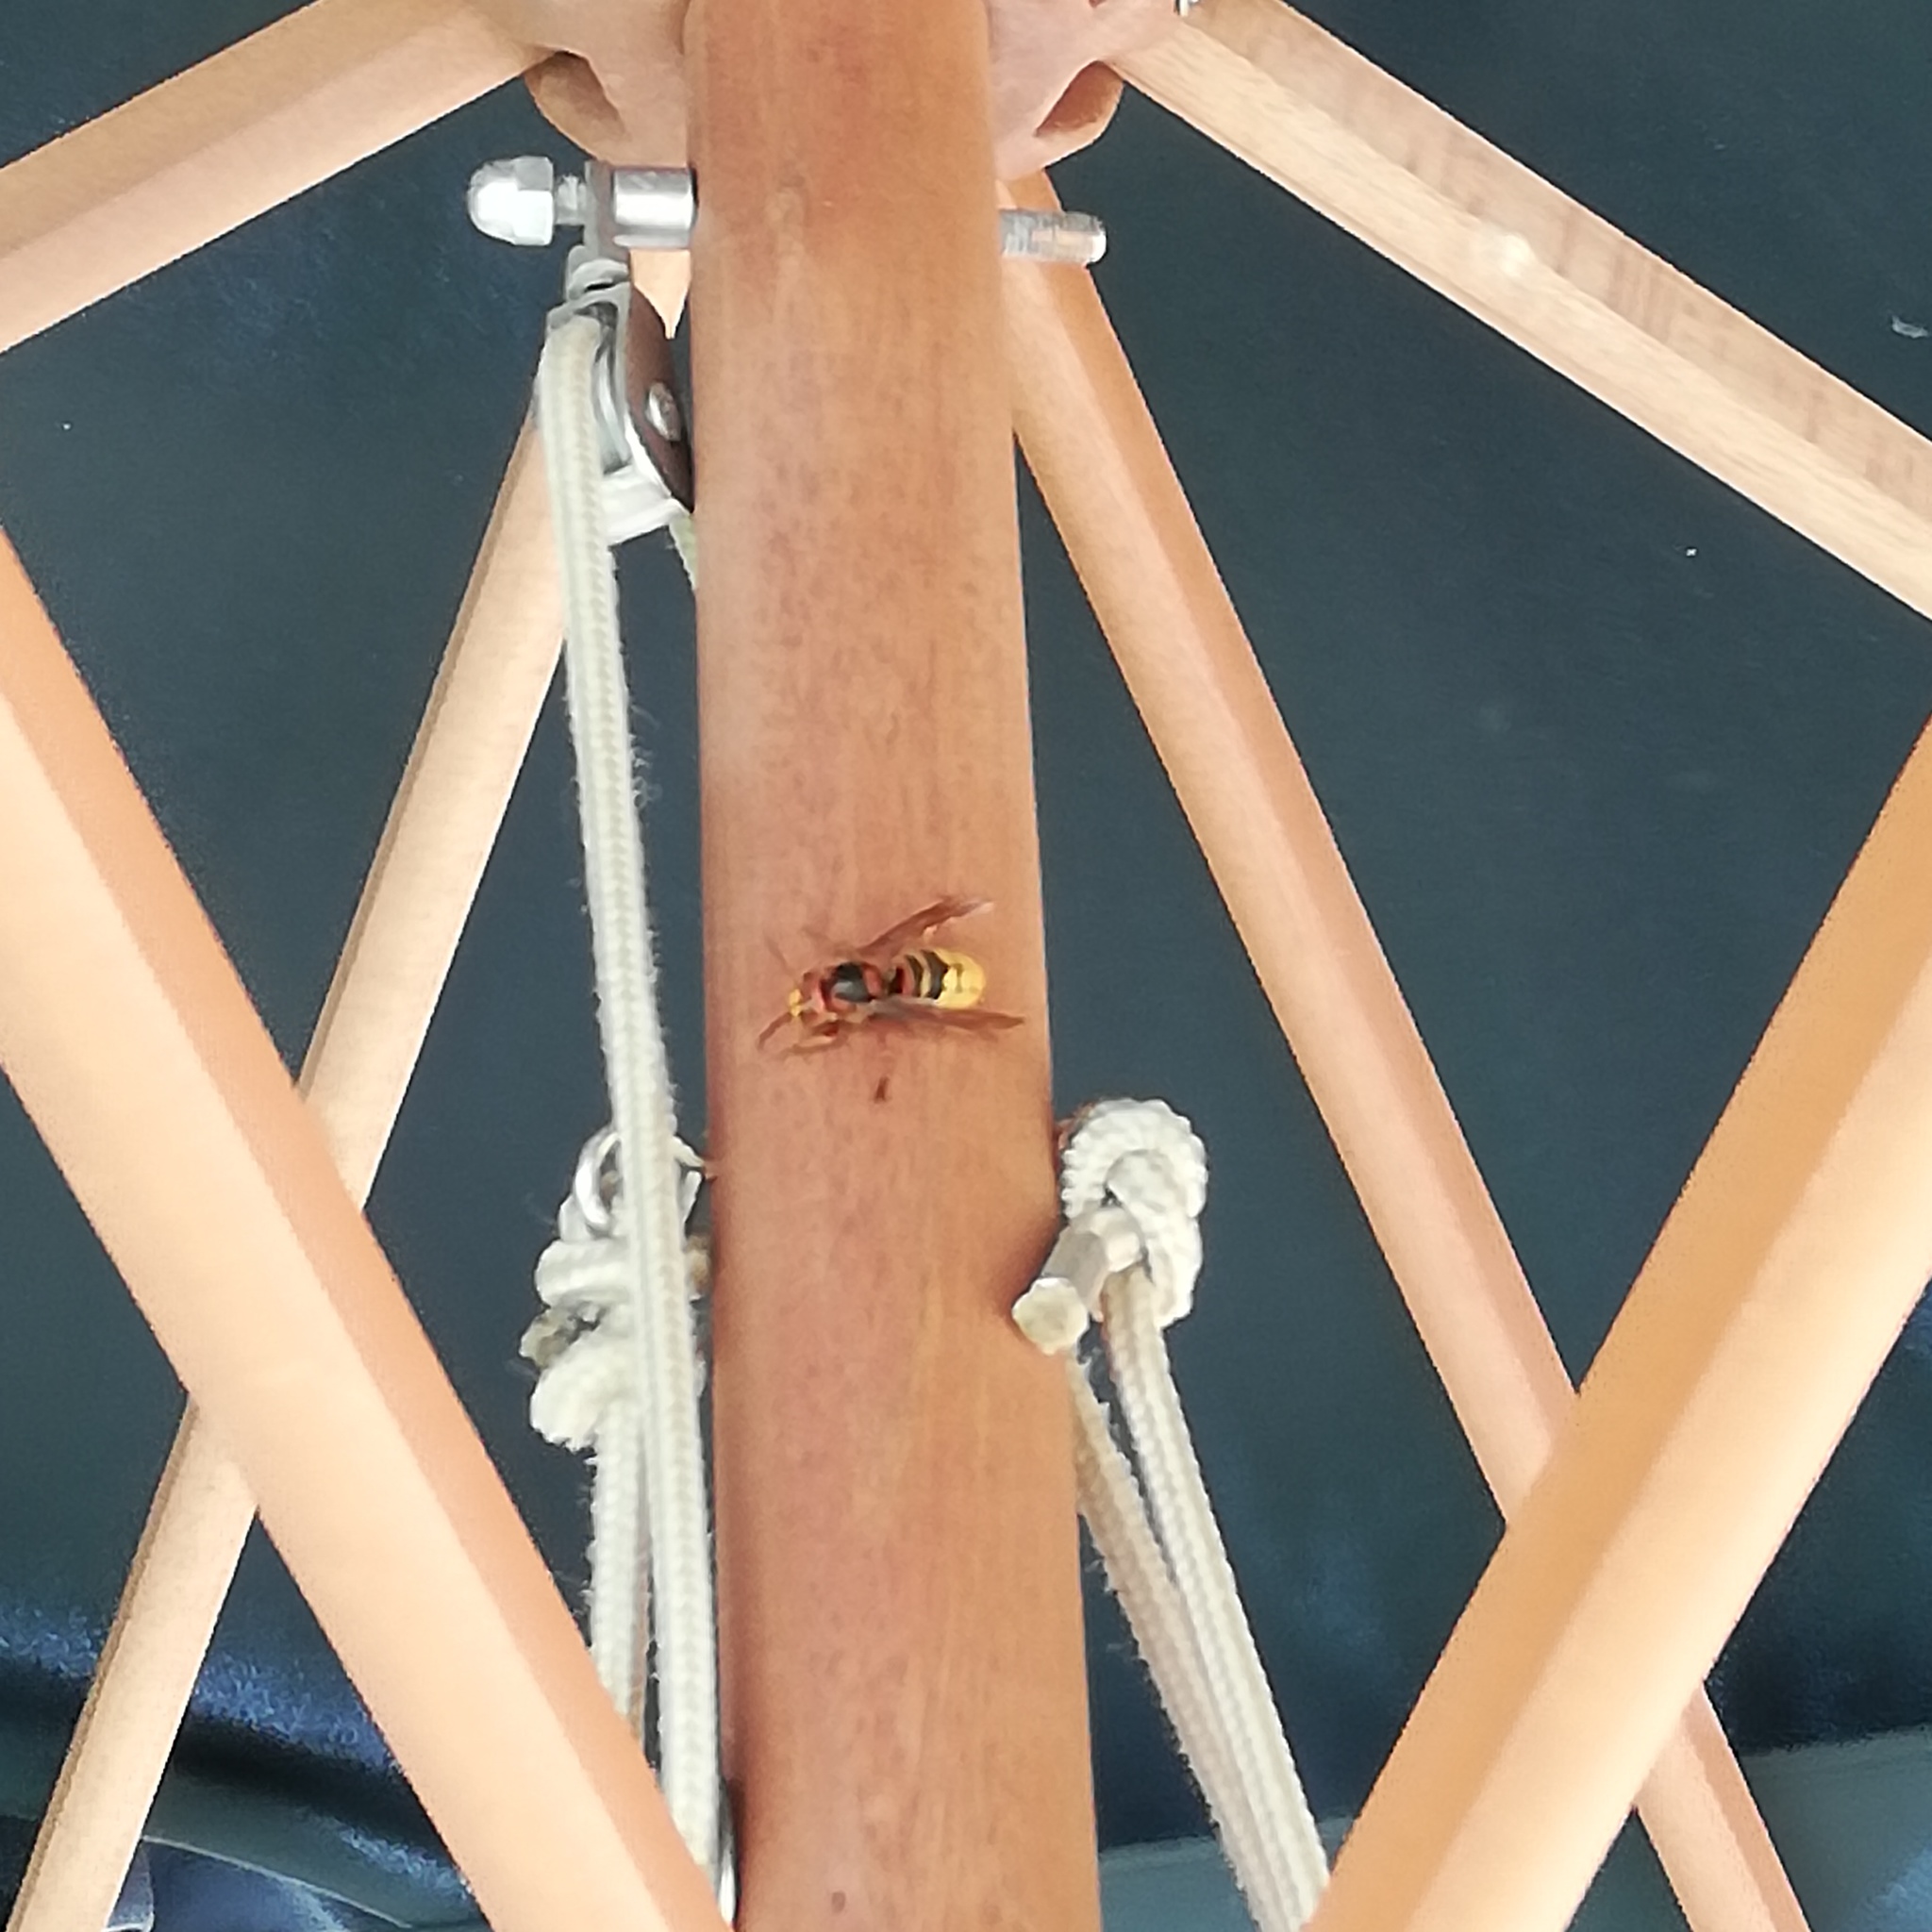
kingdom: Animalia
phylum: Arthropoda
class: Insecta
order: Hymenoptera
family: Vespidae
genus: Vespa
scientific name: Vespa crabro
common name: Hornet
